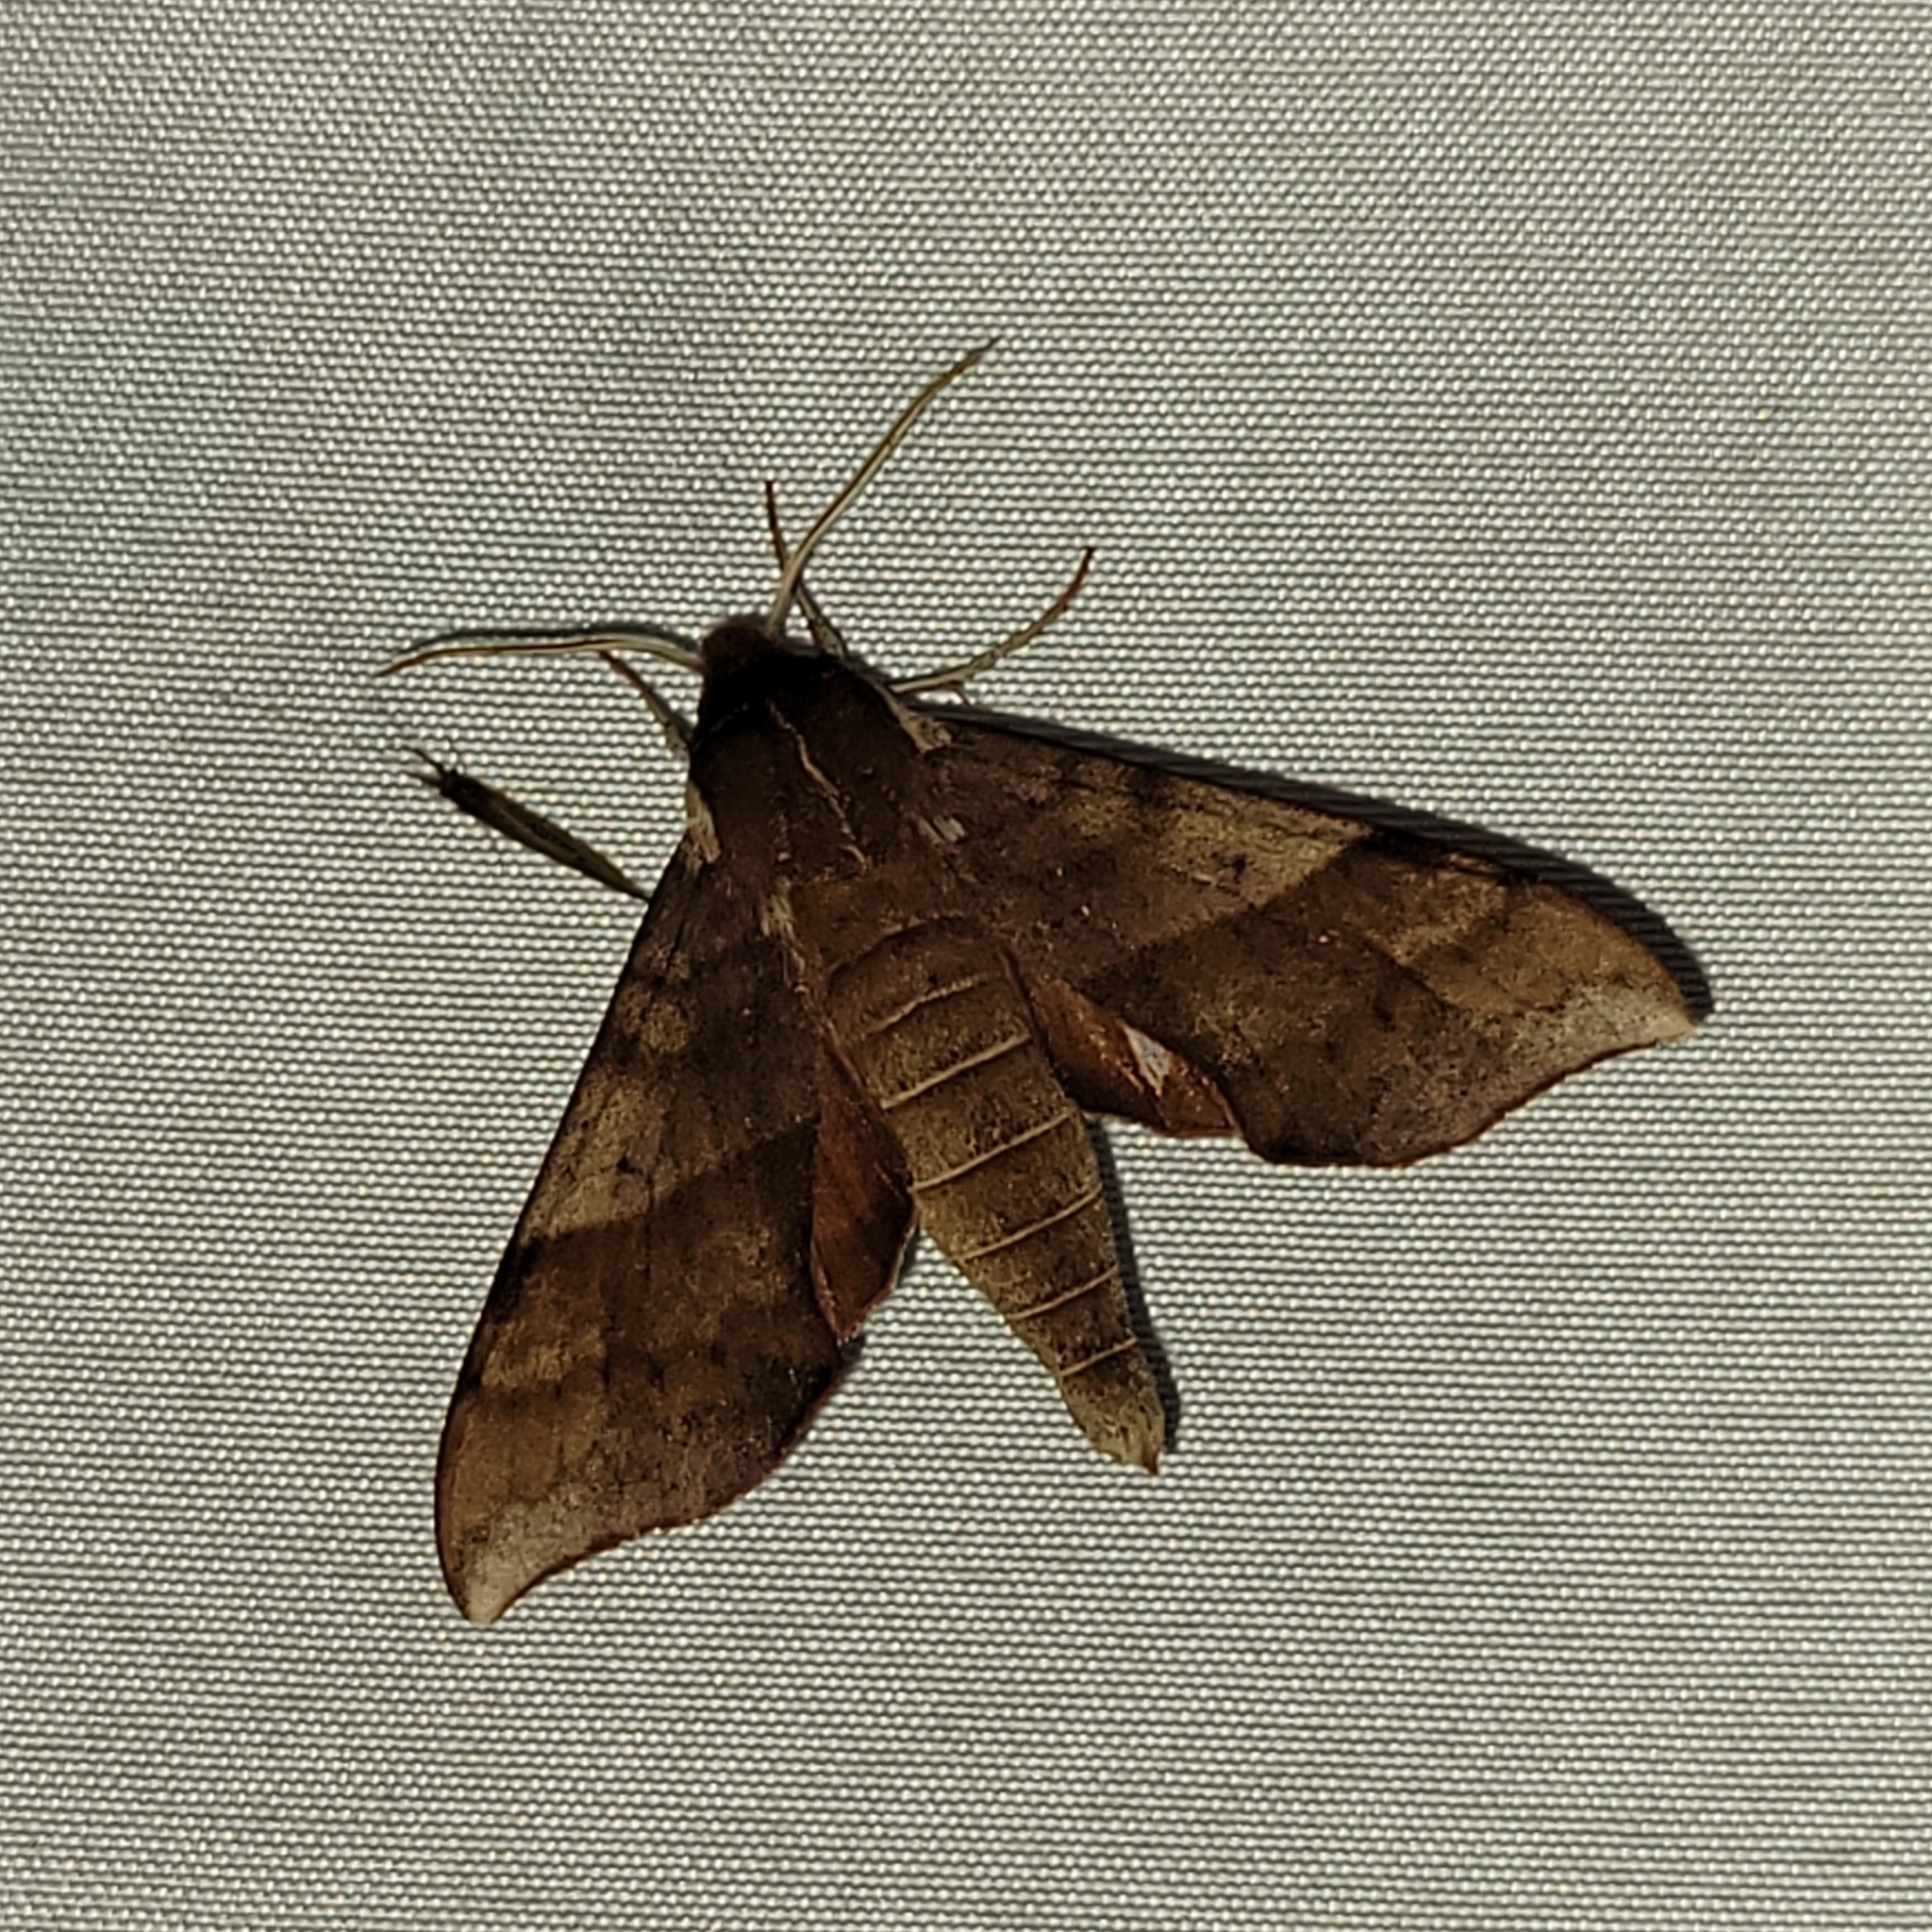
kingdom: Animalia
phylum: Arthropoda
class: Insecta
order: Lepidoptera
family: Sphingidae
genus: Darapsa
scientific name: Darapsa choerilus
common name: Azalea sphinx
